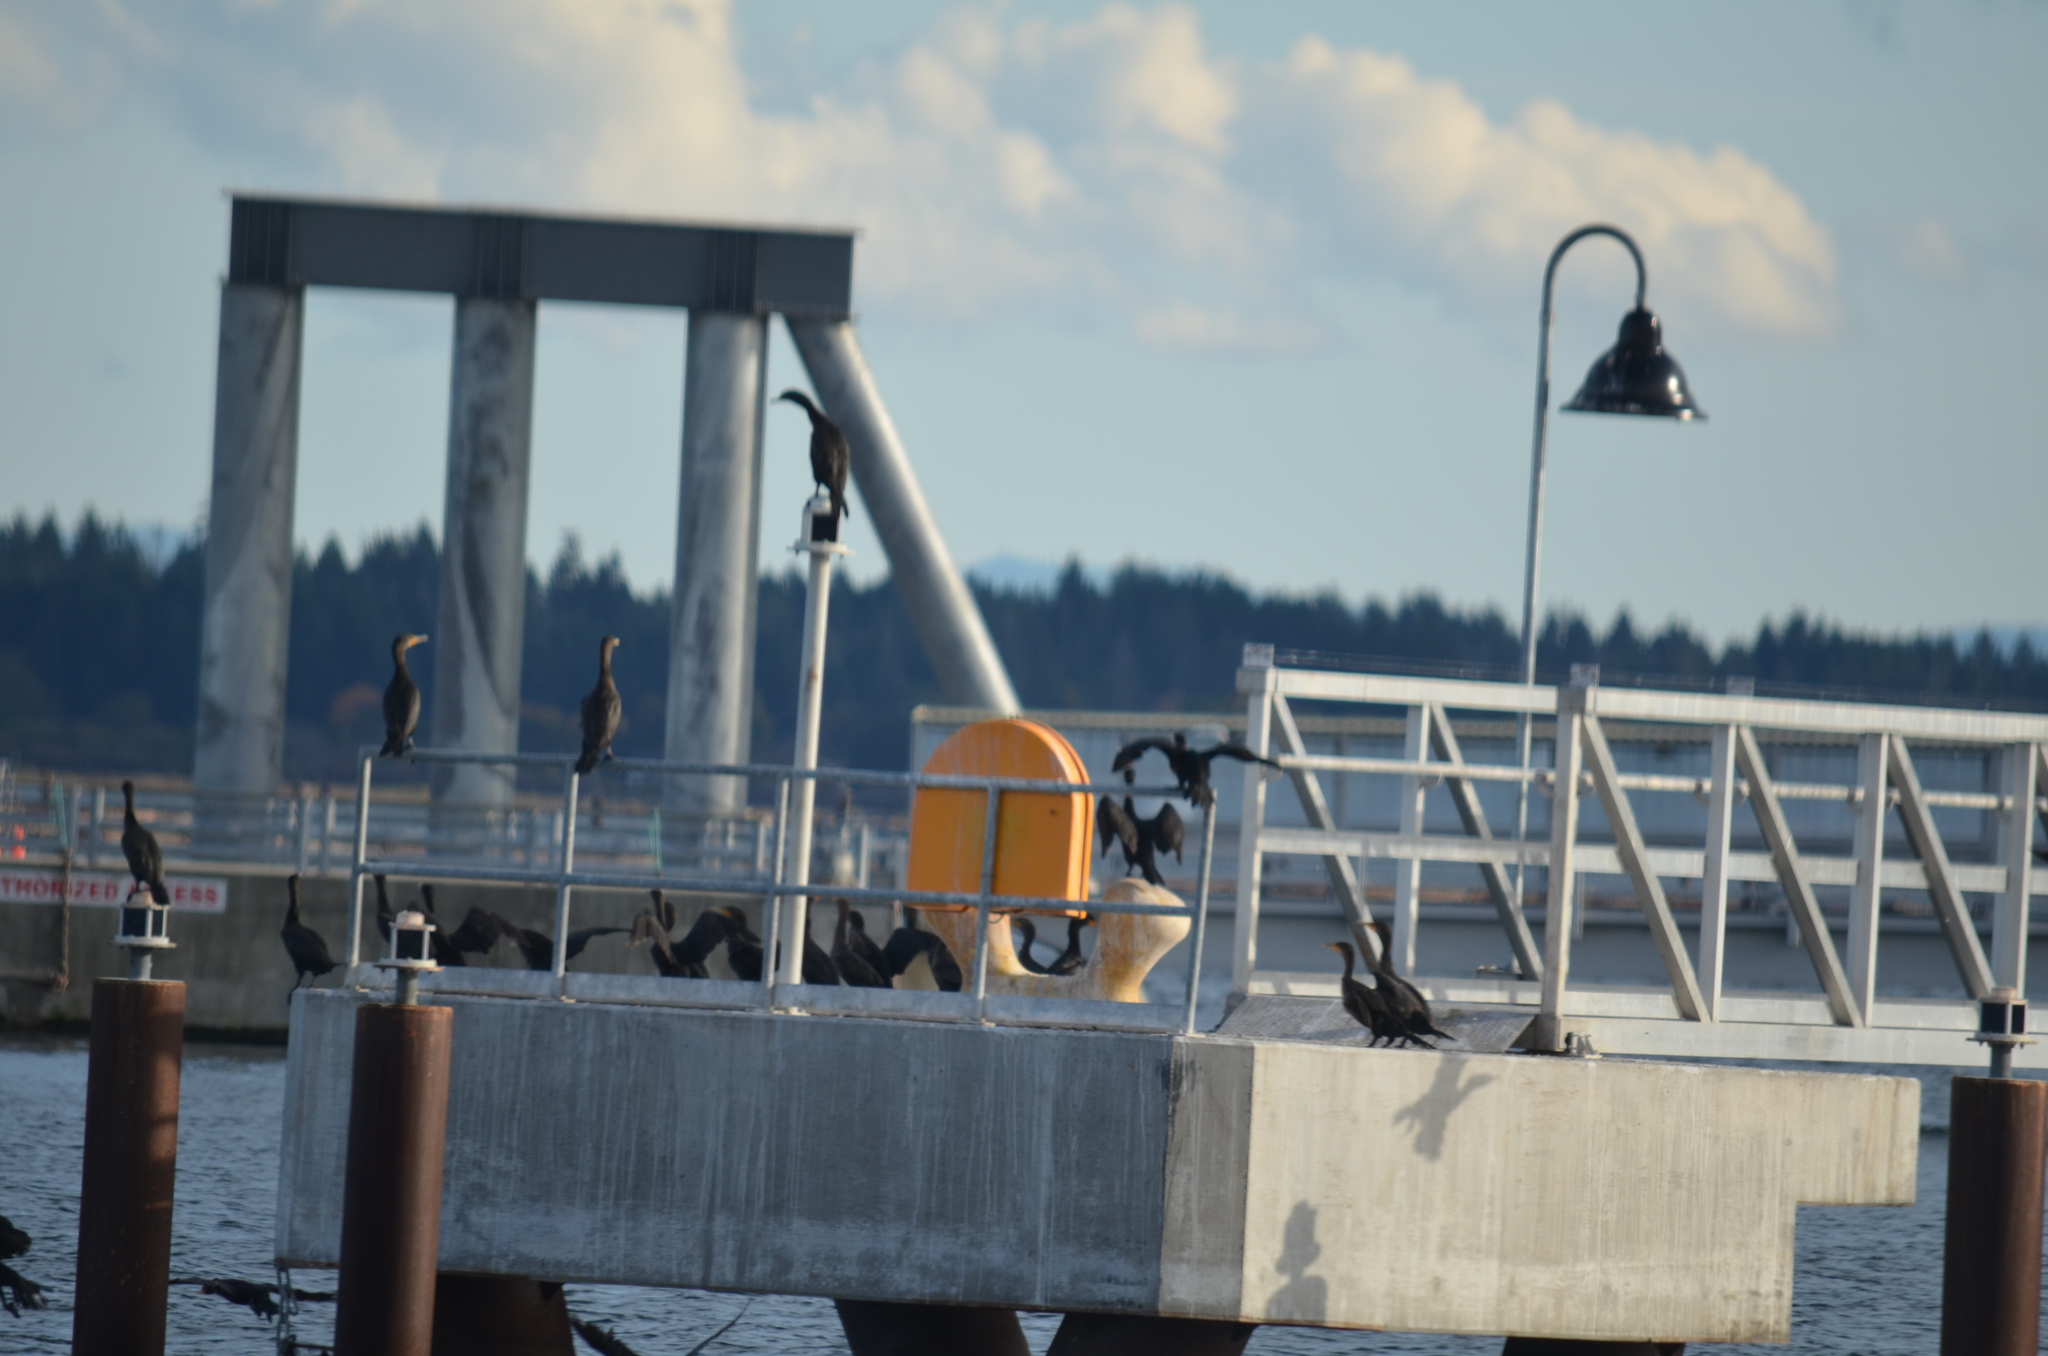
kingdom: Animalia
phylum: Chordata
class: Aves
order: Suliformes
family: Phalacrocoracidae
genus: Phalacrocorax
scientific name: Phalacrocorax auritus
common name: Double-crested cormorant
